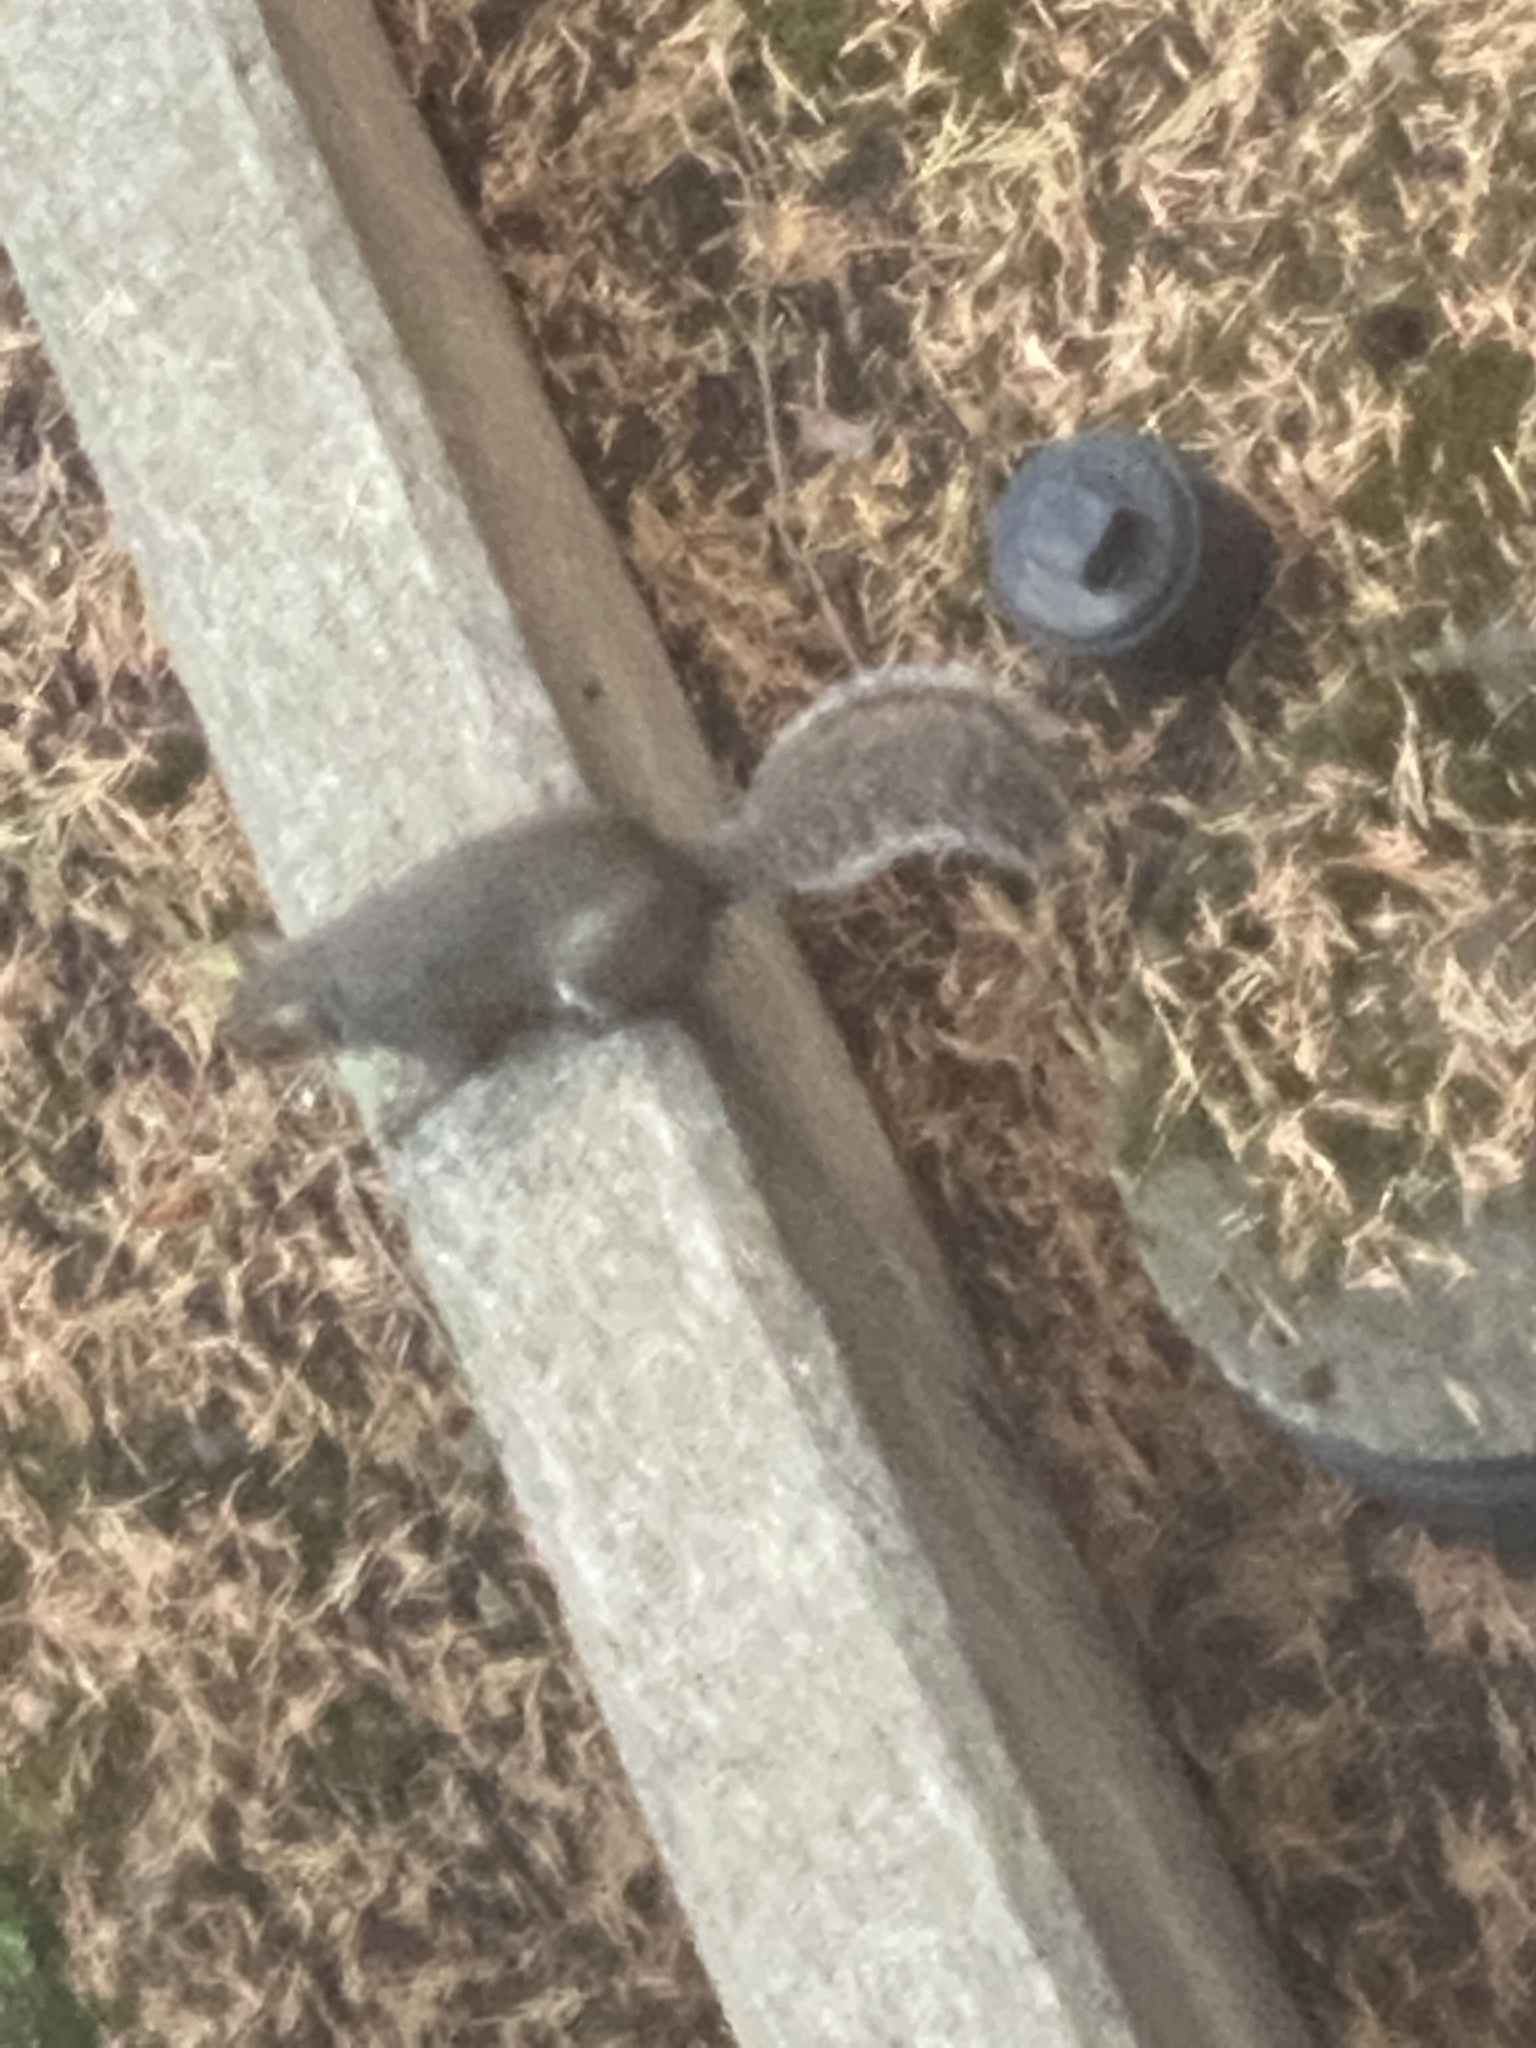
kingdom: Animalia
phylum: Chordata
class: Mammalia
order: Rodentia
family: Sciuridae
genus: Sciurus
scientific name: Sciurus carolinensis
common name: Eastern gray squirrel
